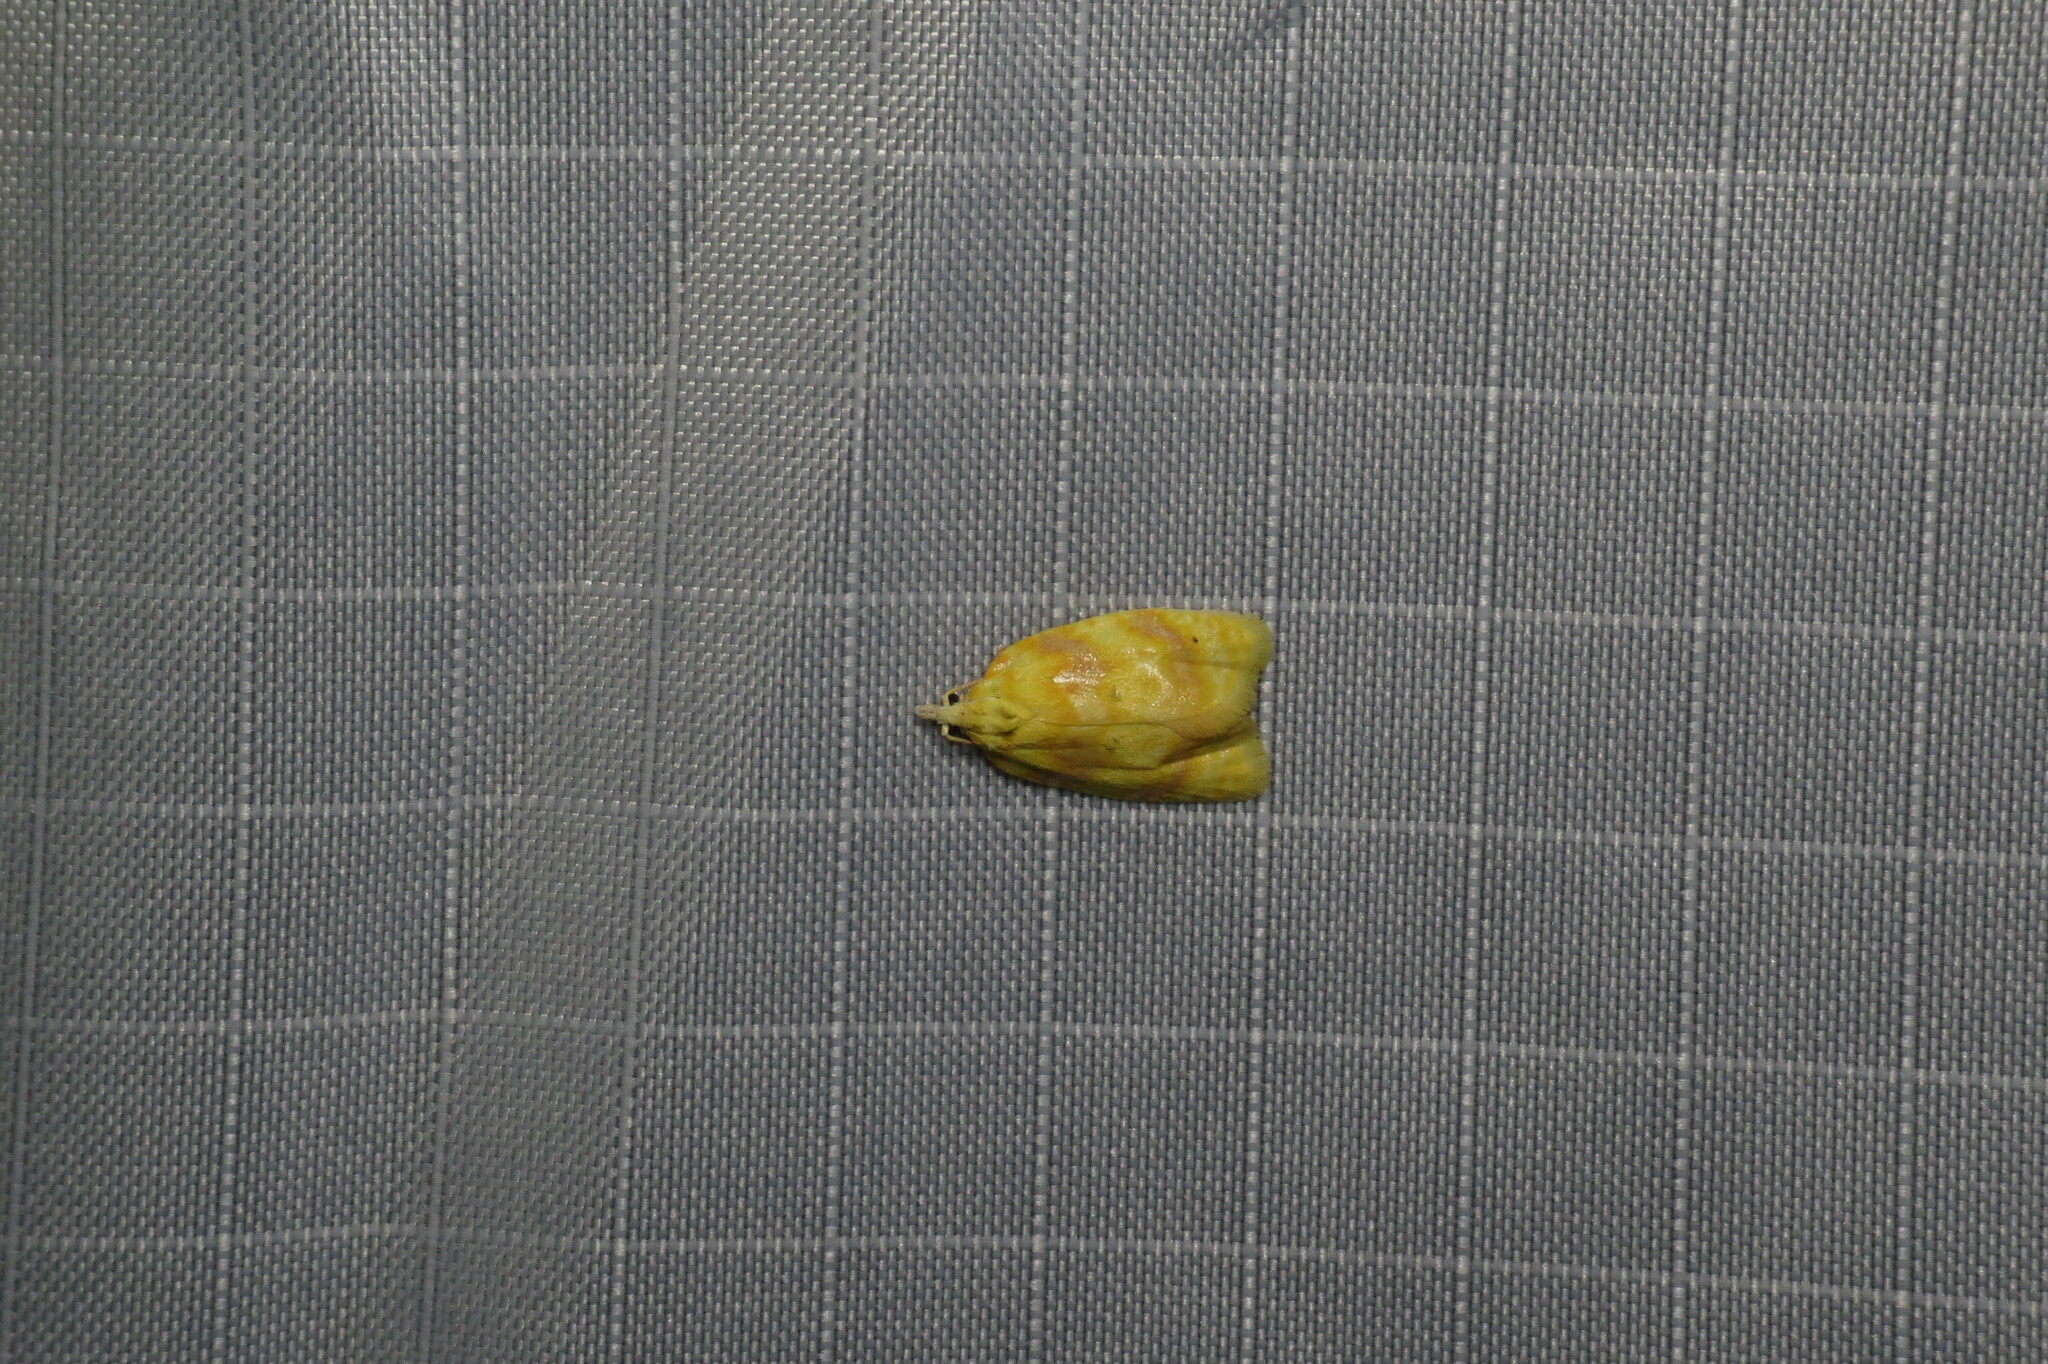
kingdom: Animalia
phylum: Arthropoda
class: Insecta
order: Lepidoptera
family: Tortricidae
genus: Acleris
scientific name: Acleris semipurpurana
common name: Oak leaftier moth
